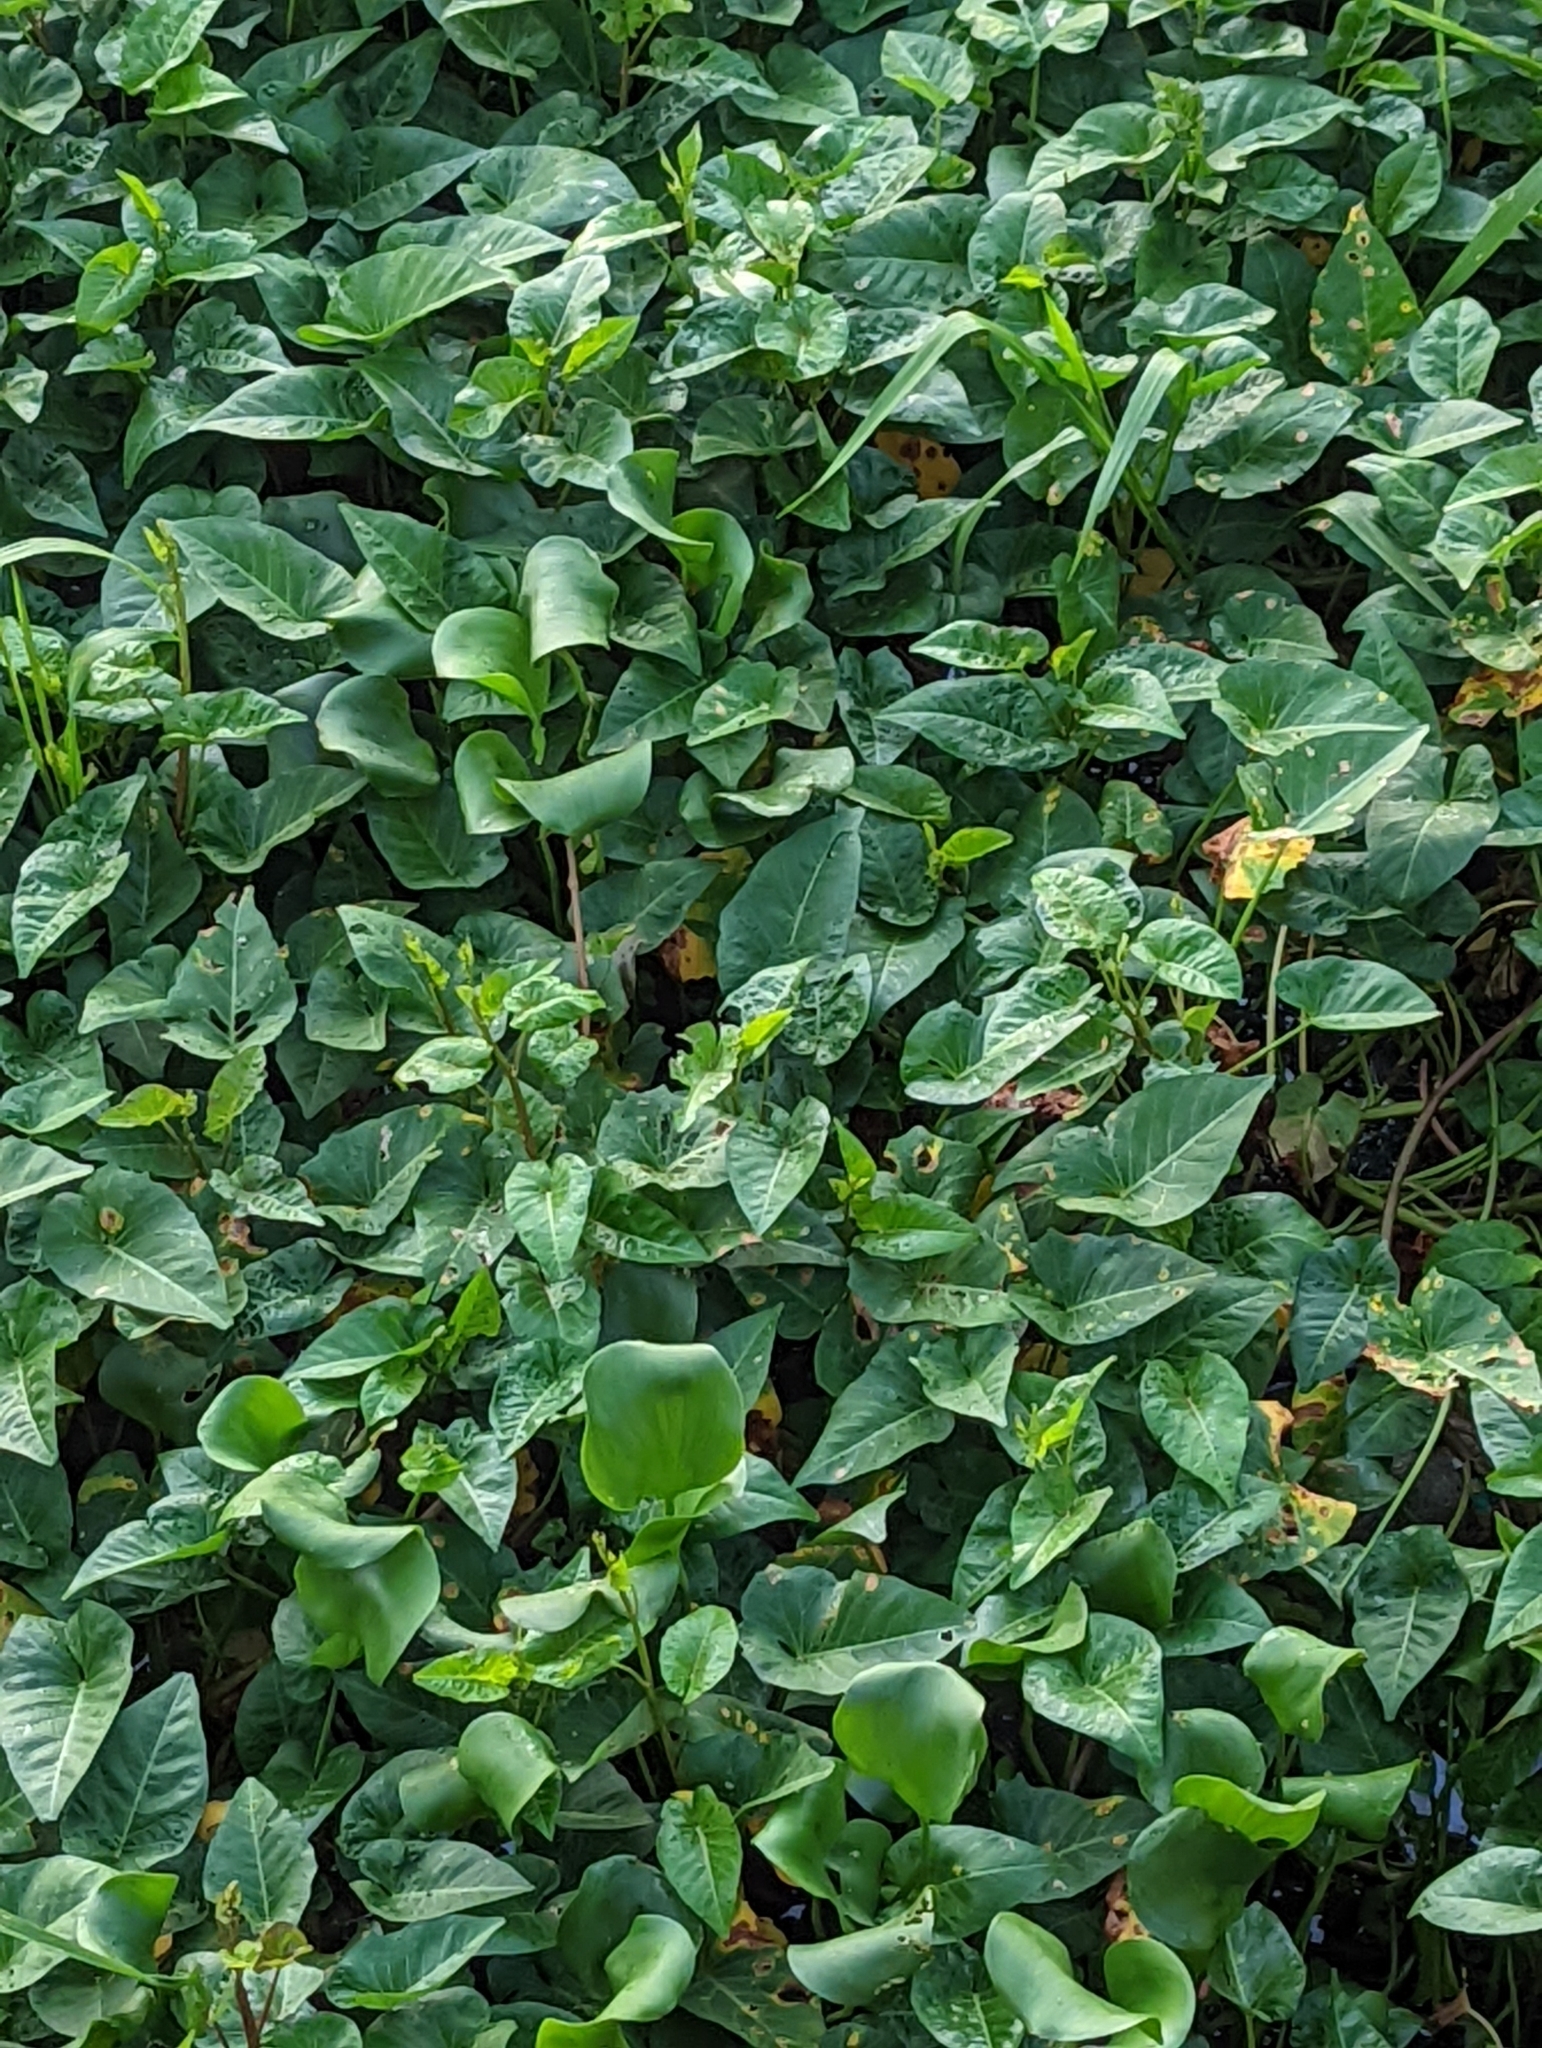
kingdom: Plantae
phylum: Tracheophyta
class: Magnoliopsida
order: Solanales
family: Convolvulaceae
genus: Ipomoea
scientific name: Ipomoea aquatica
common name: Swamp morning-glory
